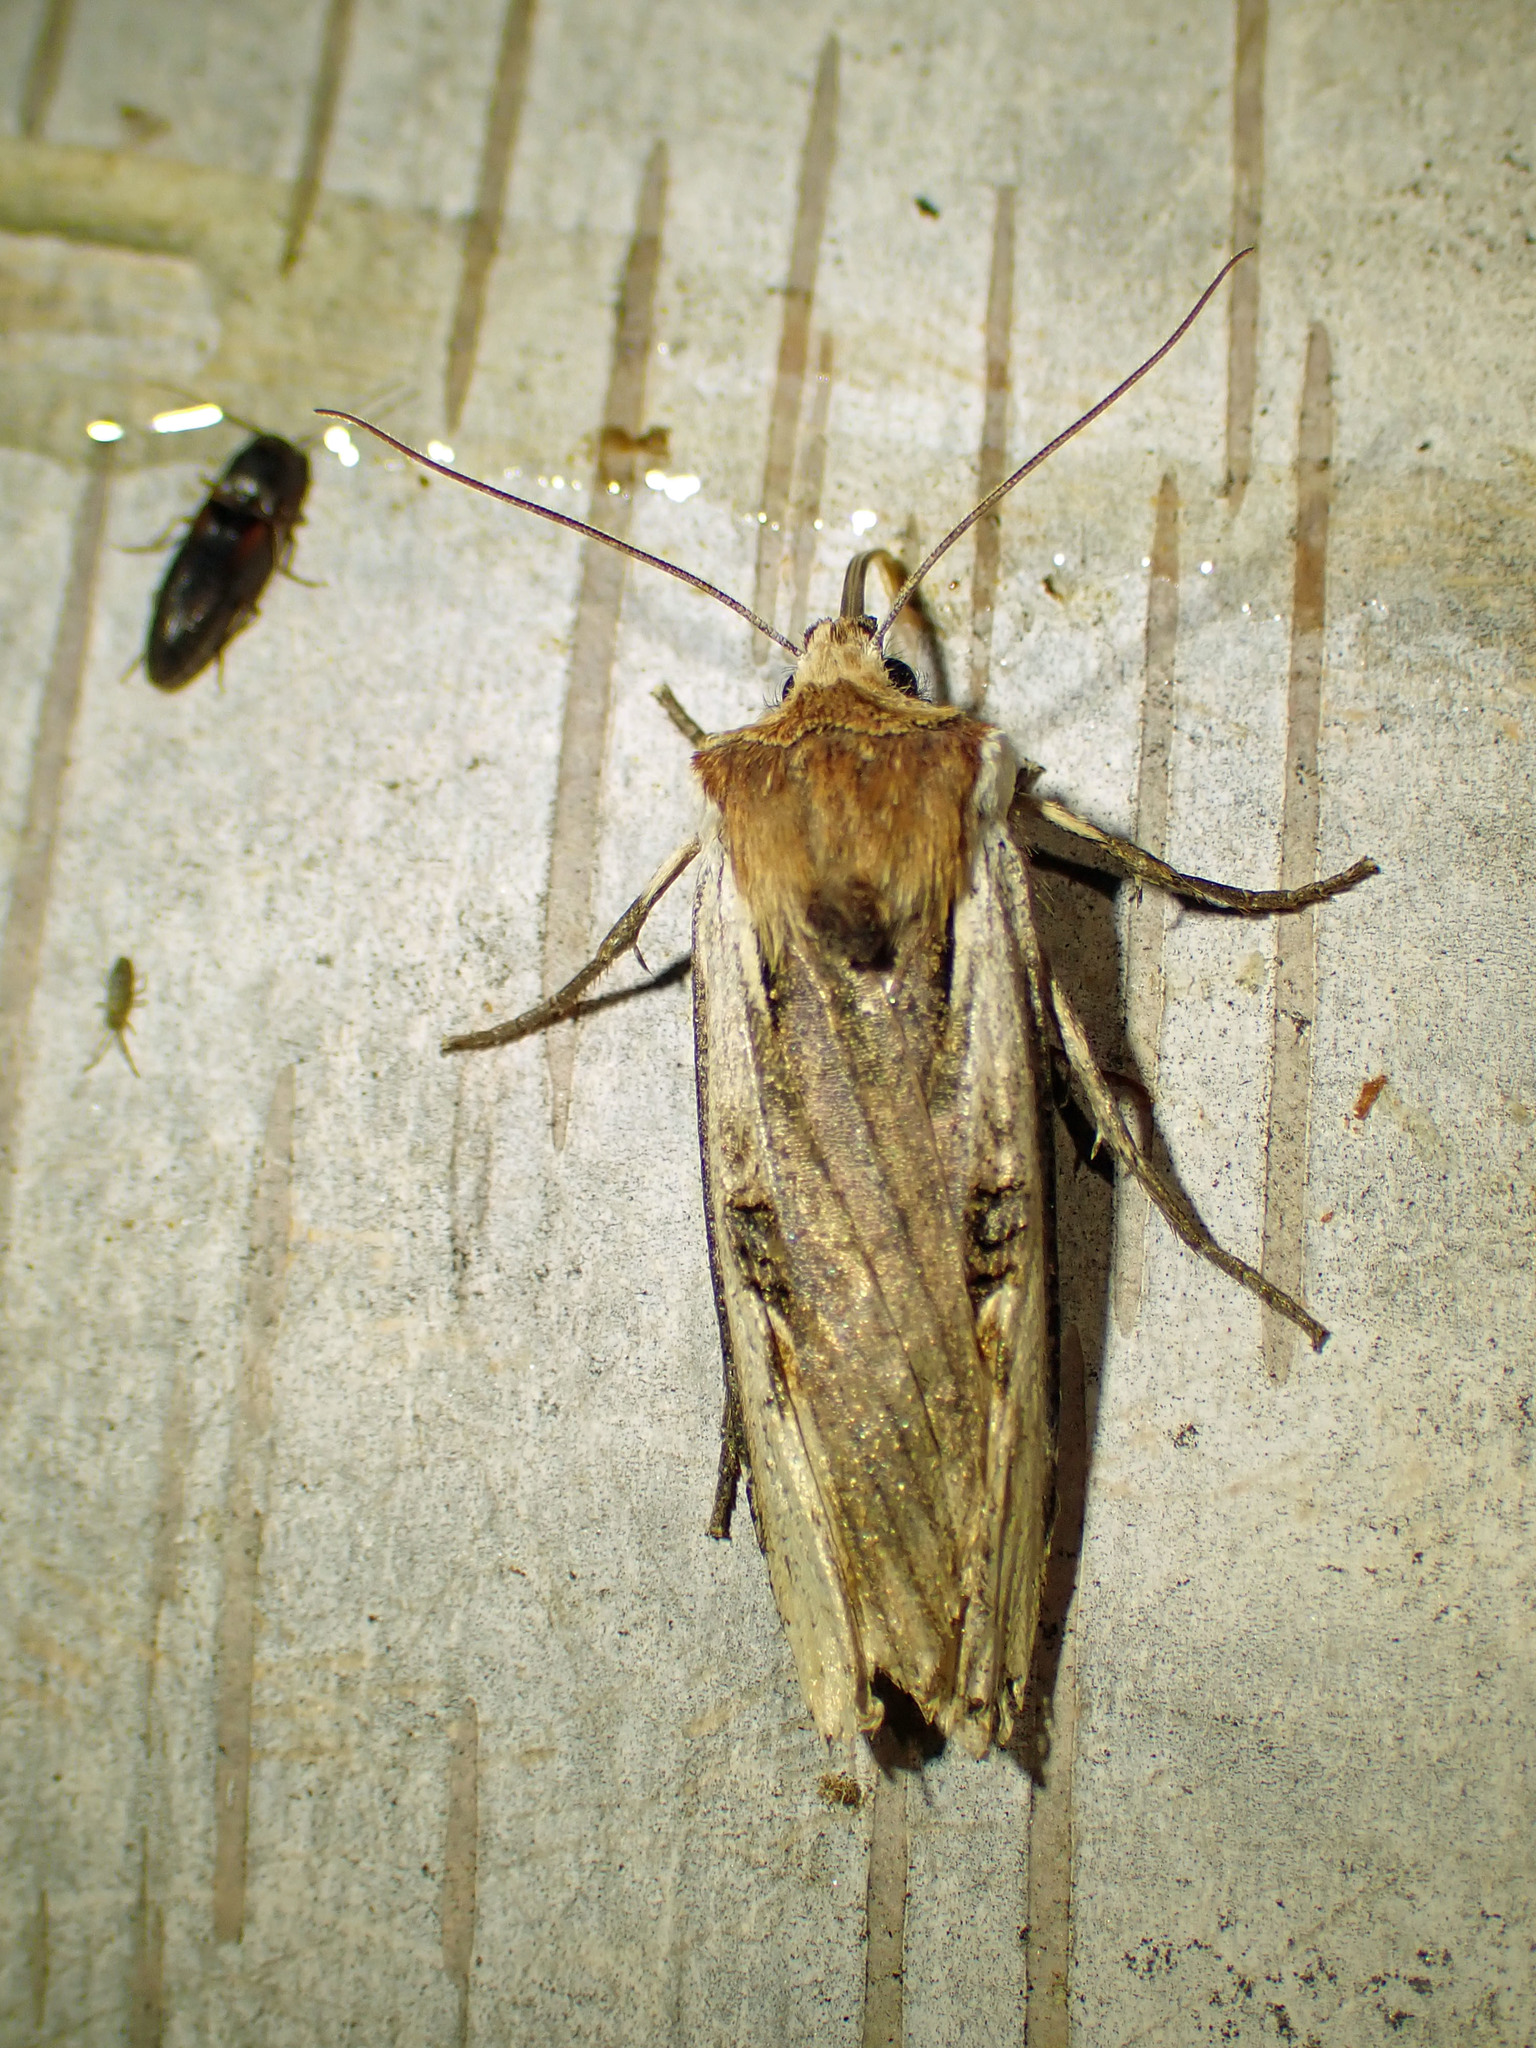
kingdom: Animalia
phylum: Arthropoda
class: Insecta
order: Lepidoptera
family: Noctuidae
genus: Xylena
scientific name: Xylena curvimacula
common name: Dot-and-dash swordgrass moth
